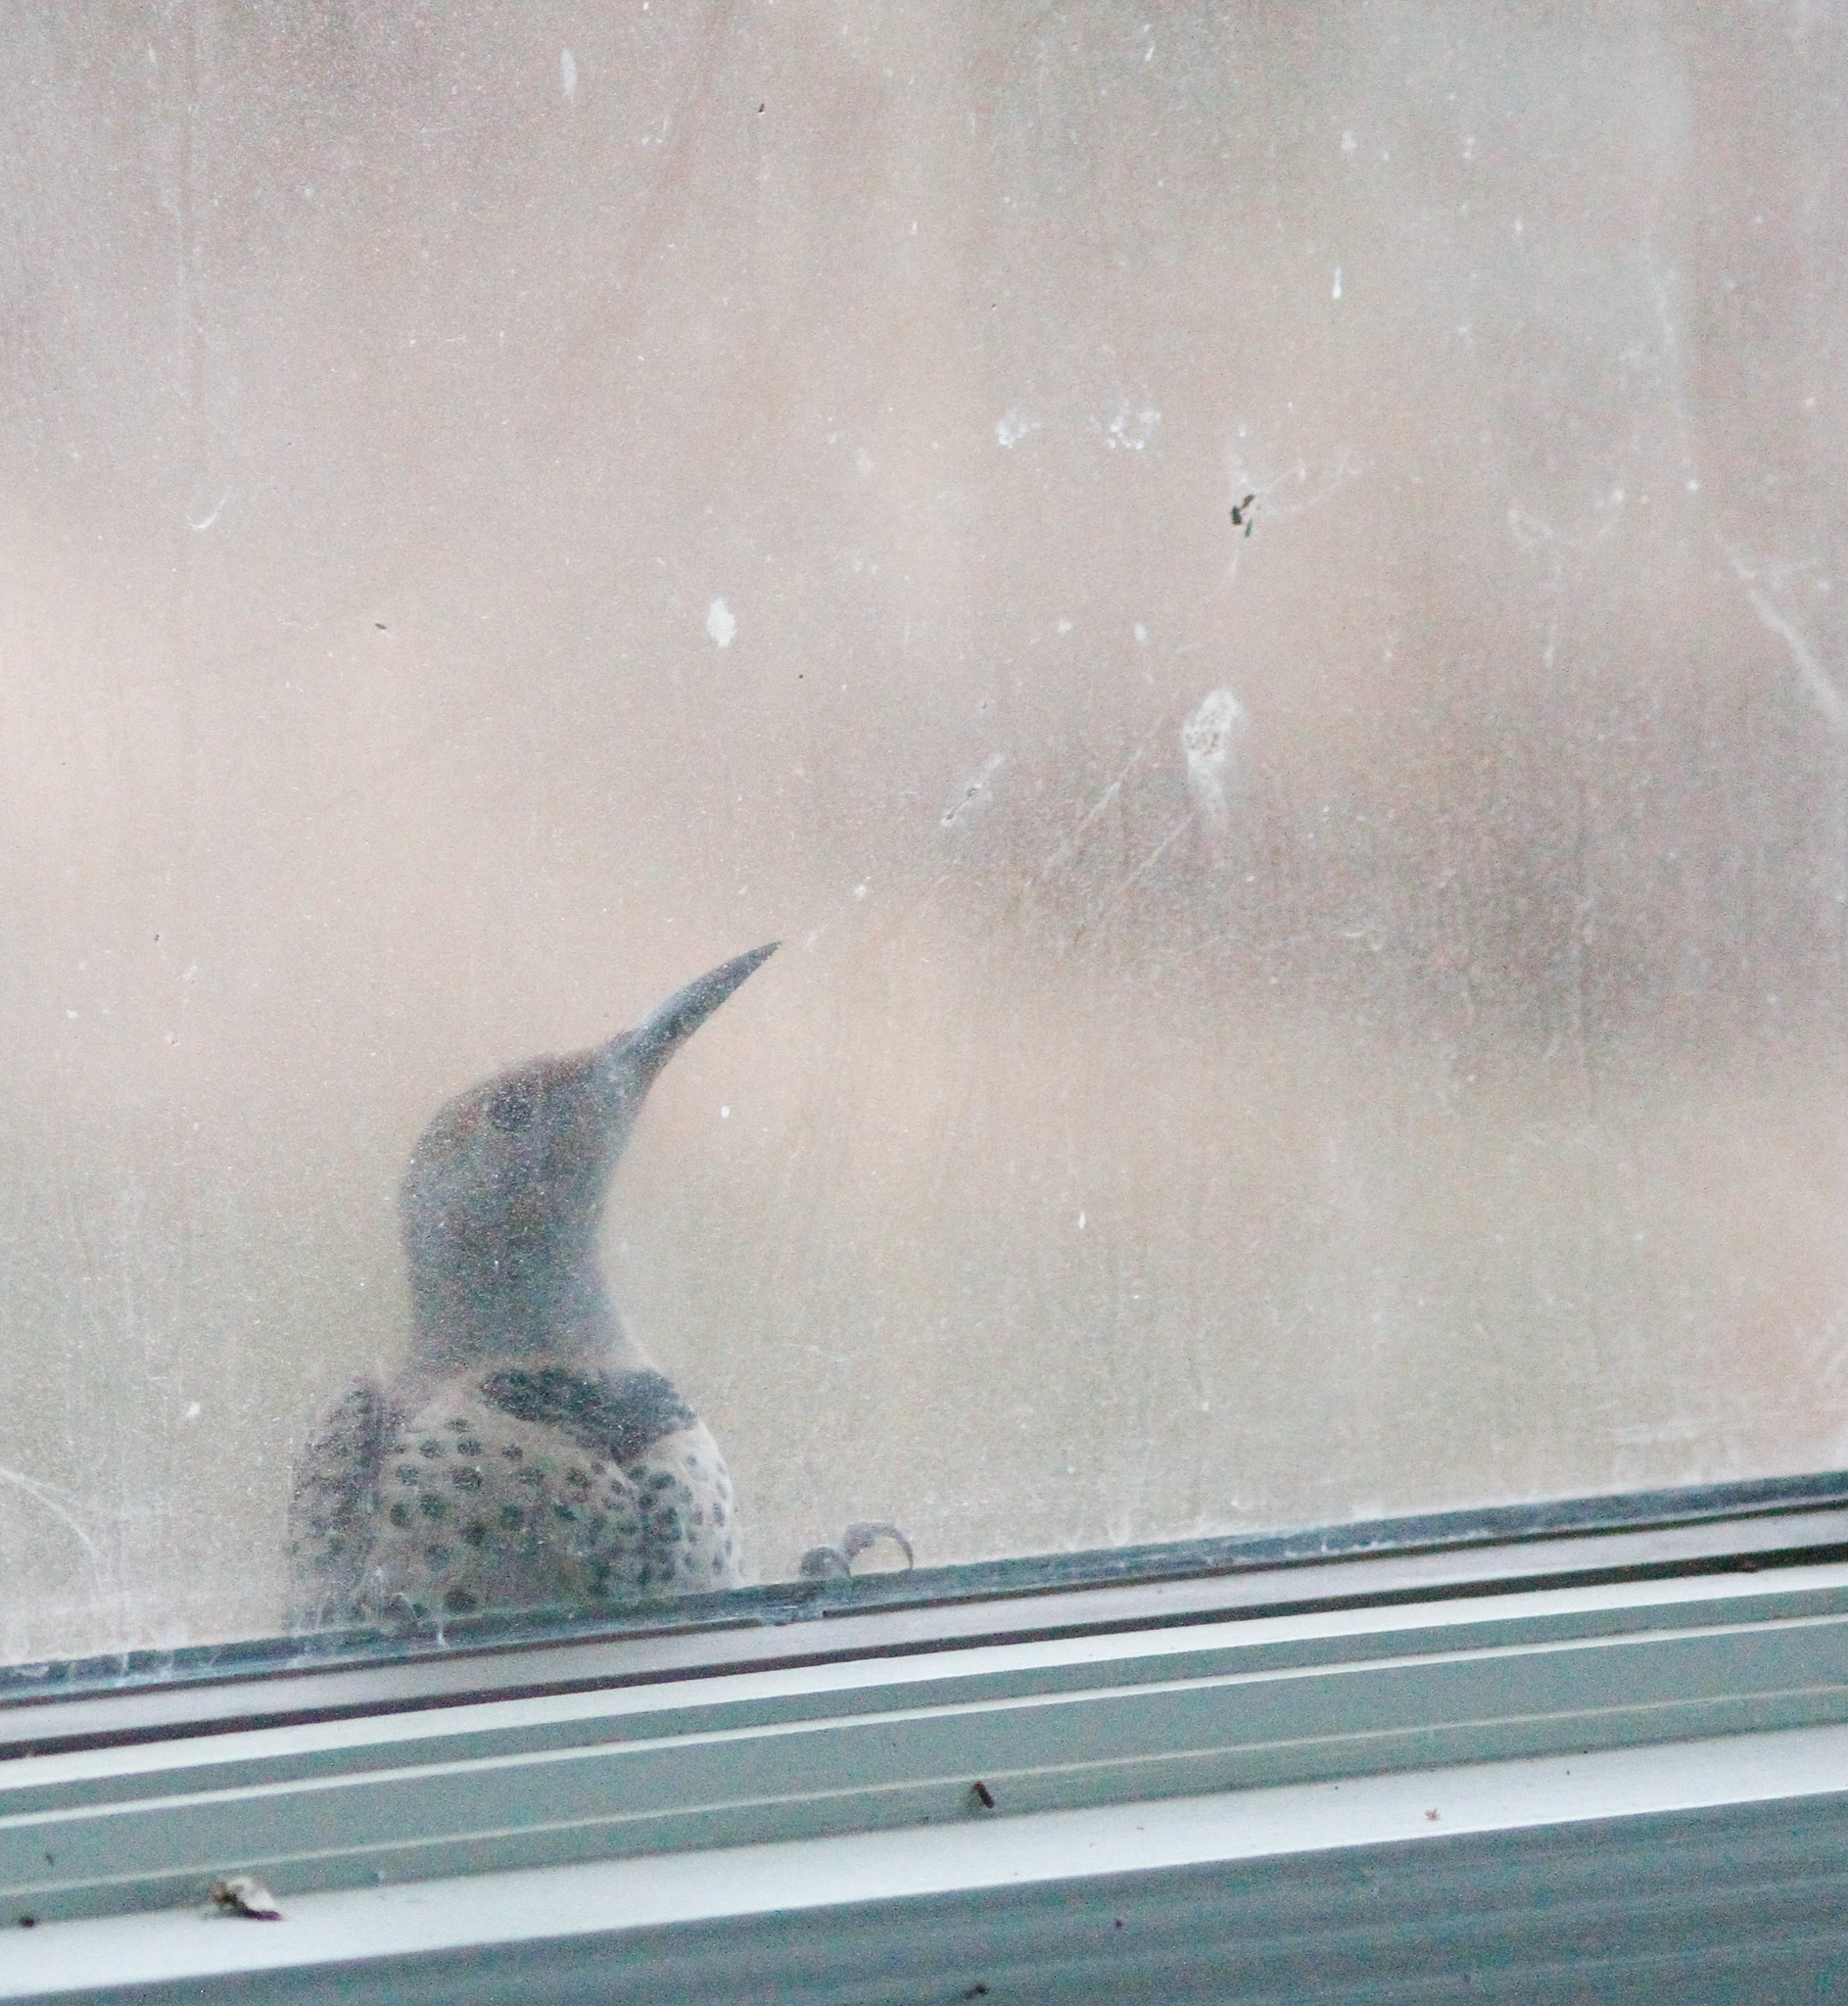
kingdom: Animalia
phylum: Chordata
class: Aves
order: Piciformes
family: Picidae
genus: Colaptes
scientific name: Colaptes auratus
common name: Northern flicker
